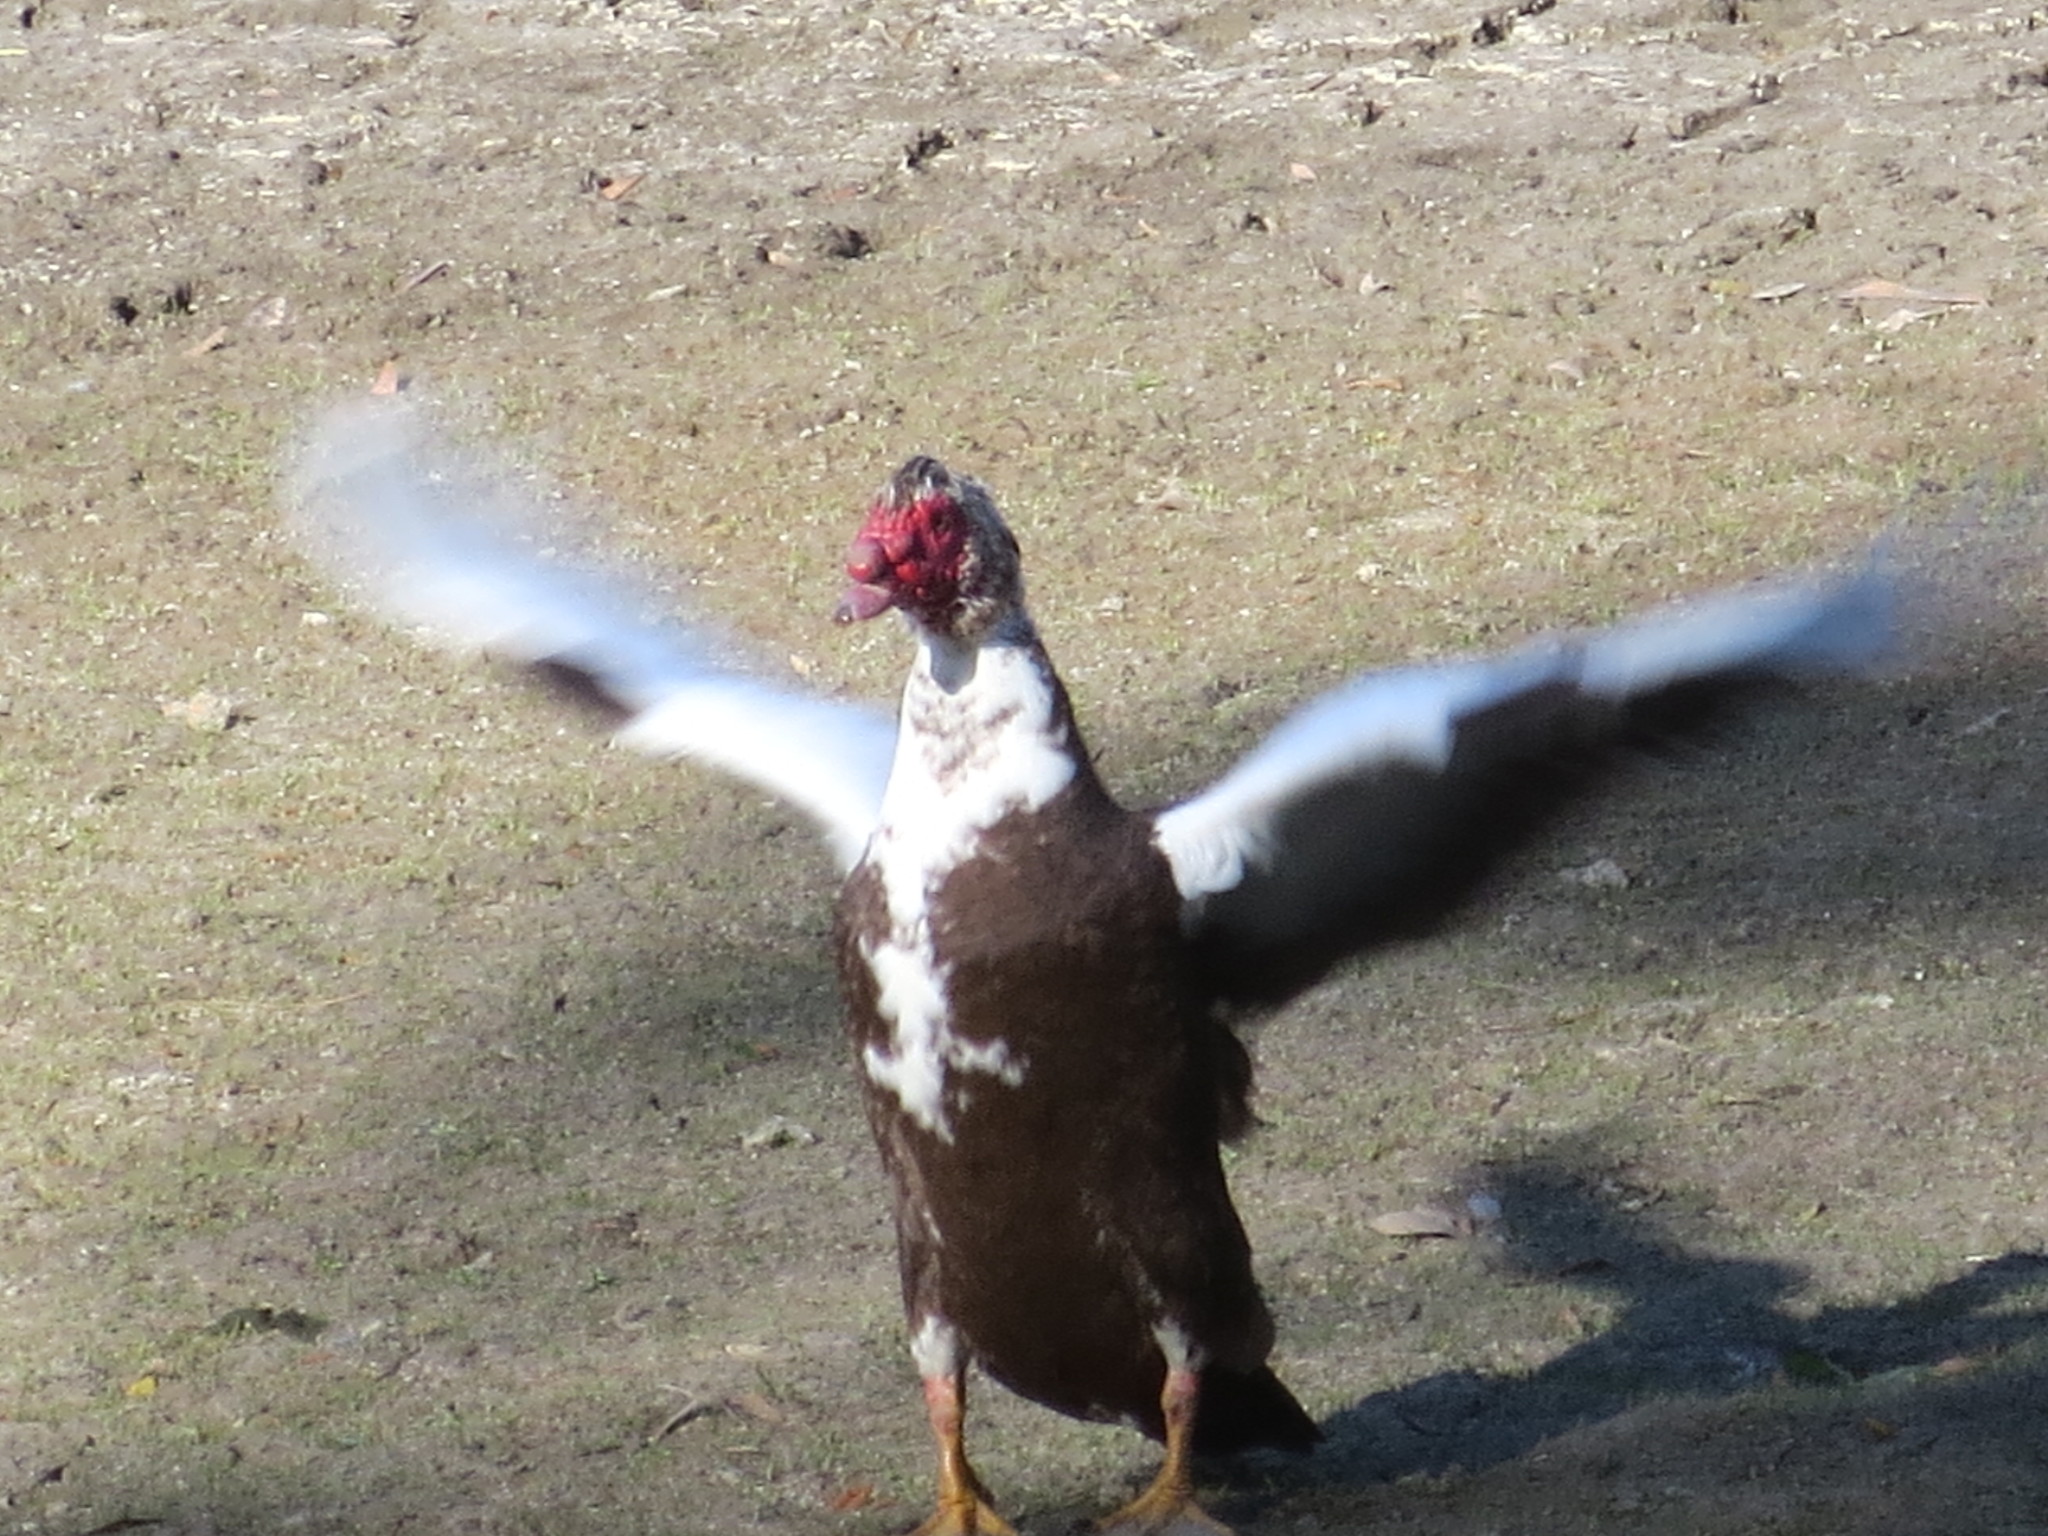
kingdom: Animalia
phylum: Chordata
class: Aves
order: Anseriformes
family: Anatidae
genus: Cairina
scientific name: Cairina moschata
